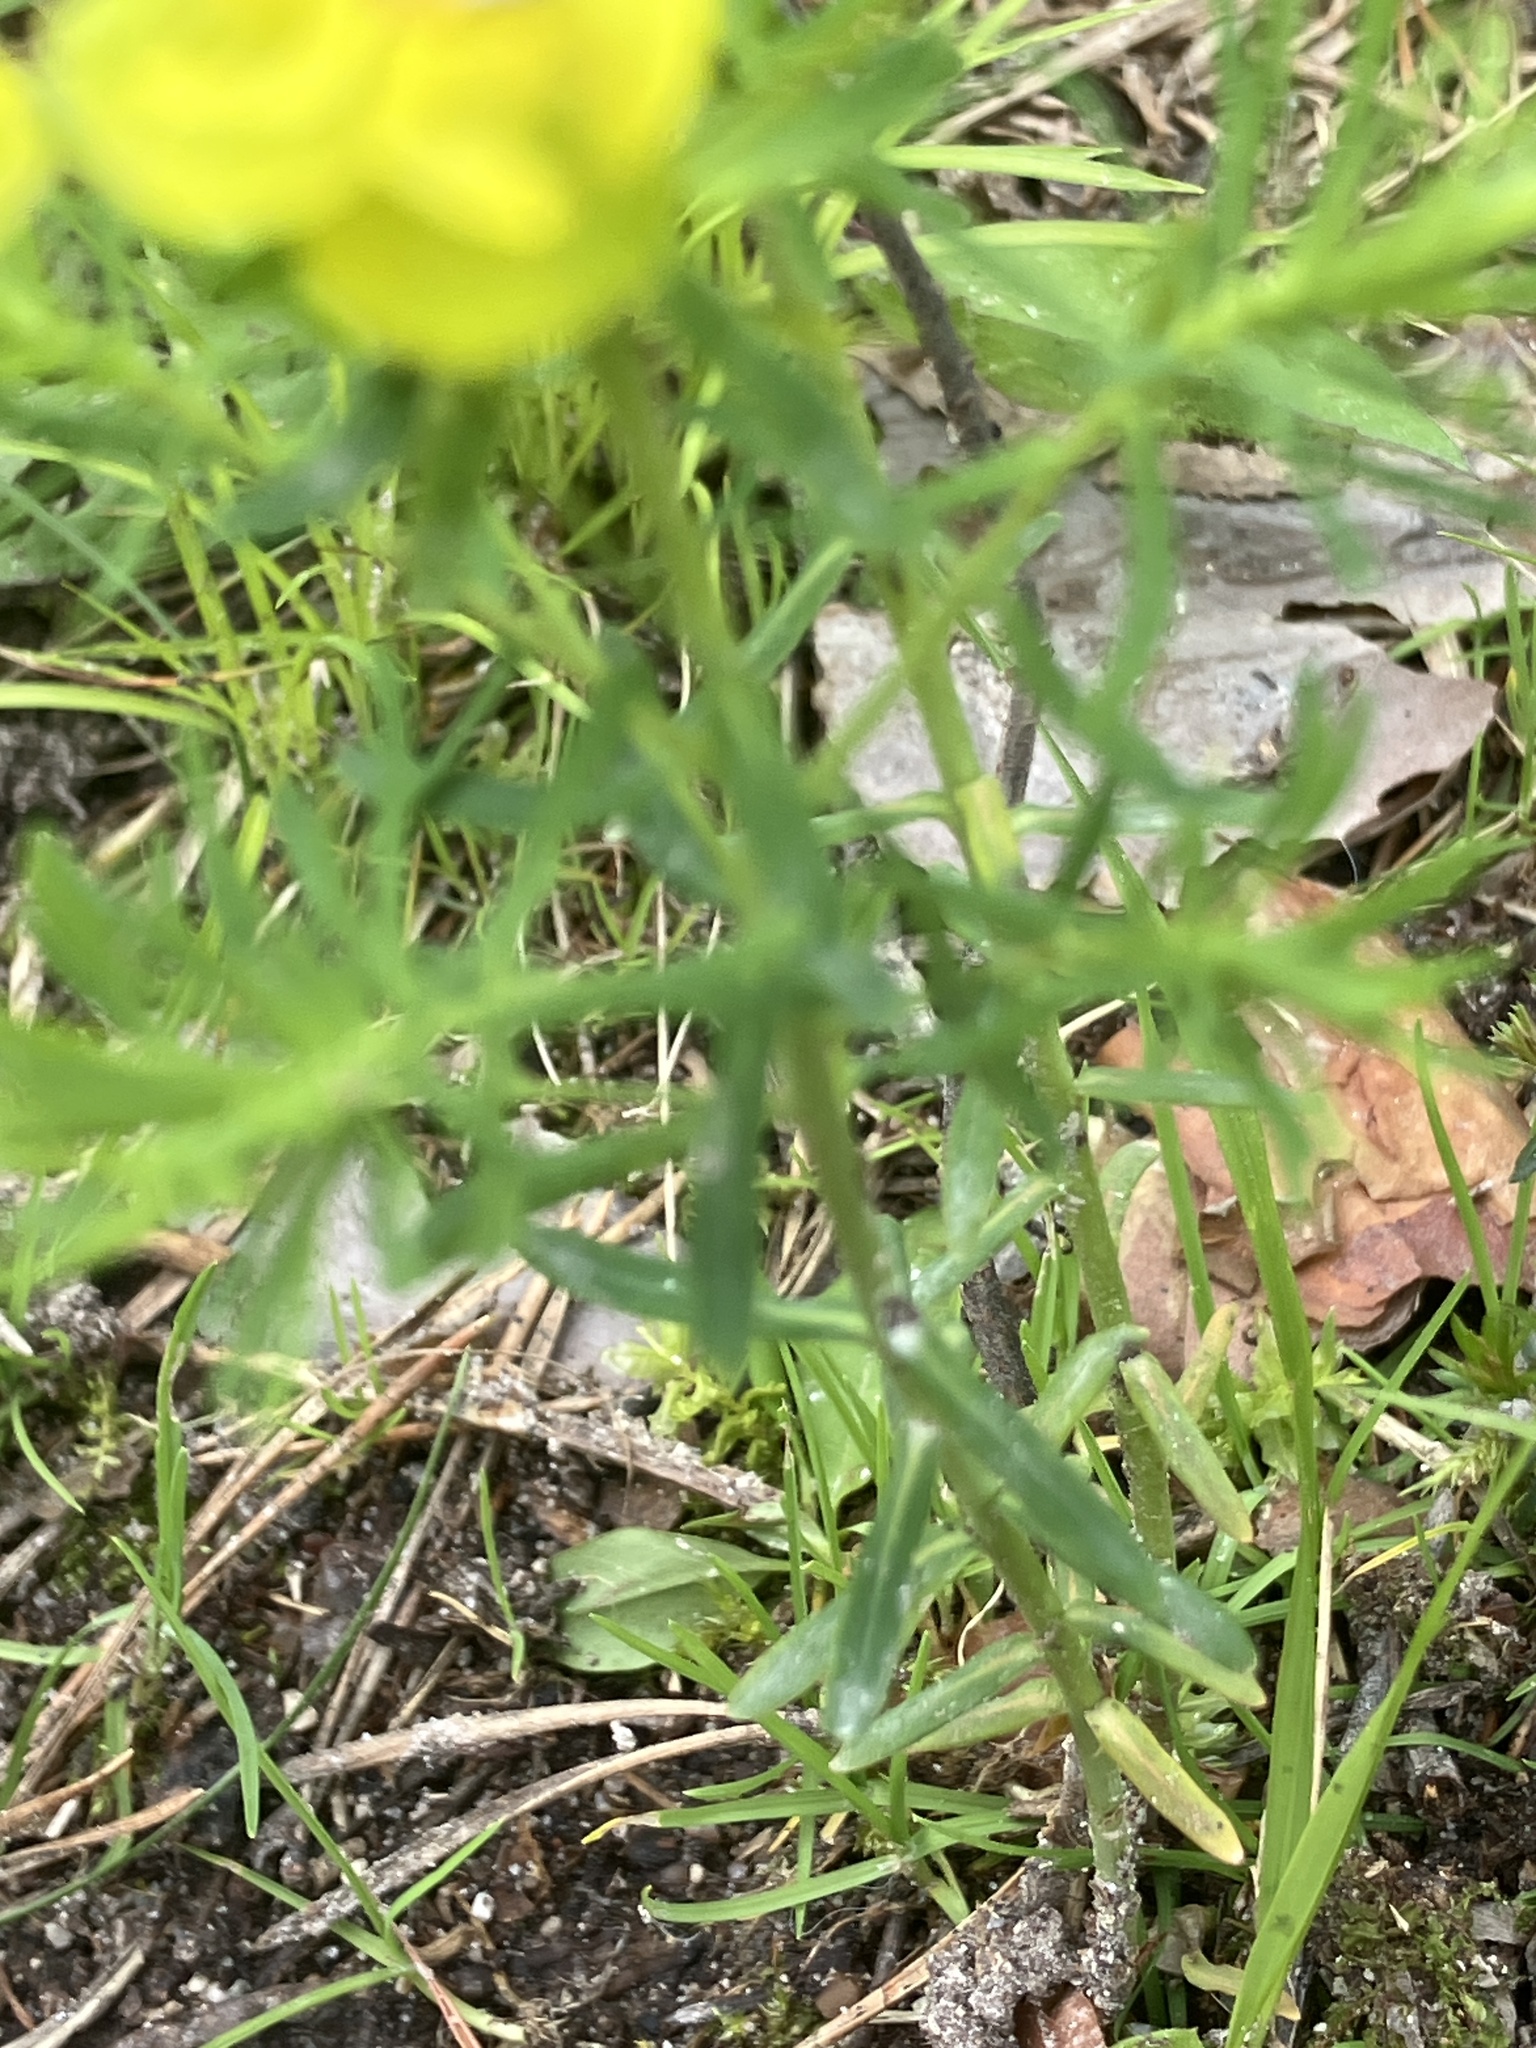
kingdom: Plantae
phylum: Tracheophyta
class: Magnoliopsida
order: Malpighiales
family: Euphorbiaceae
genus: Euphorbia
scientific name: Euphorbia cyparissias
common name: Cypress spurge
